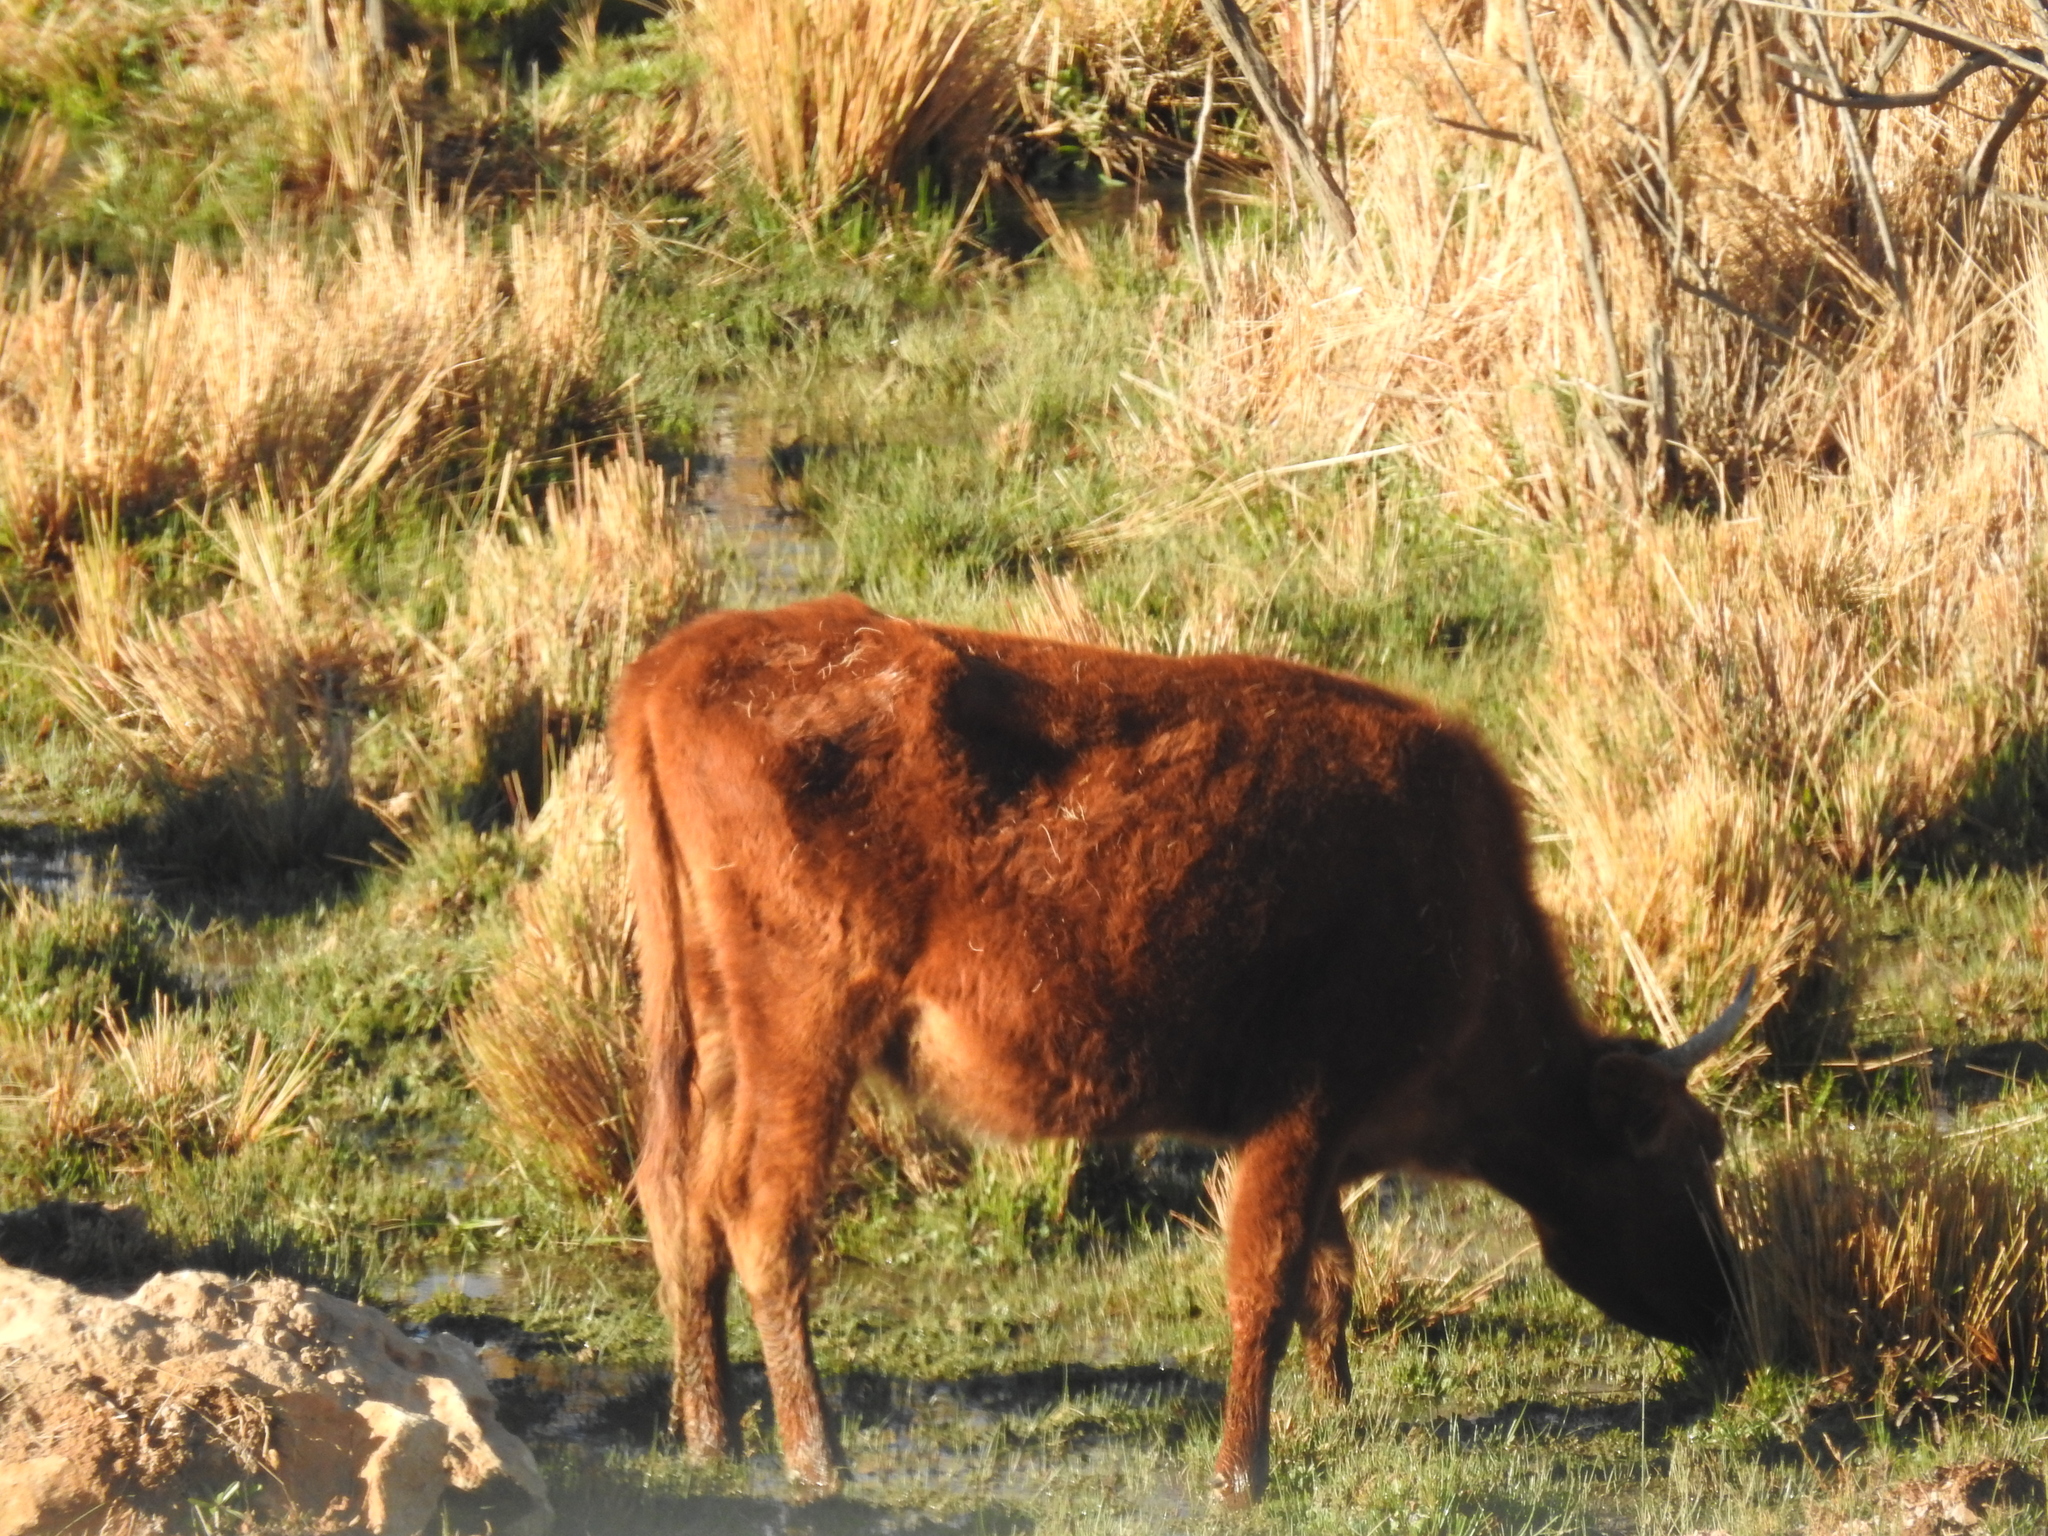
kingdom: Animalia
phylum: Chordata
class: Mammalia
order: Artiodactyla
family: Bovidae
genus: Bos
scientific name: Bos taurus
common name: Domesticated cattle
